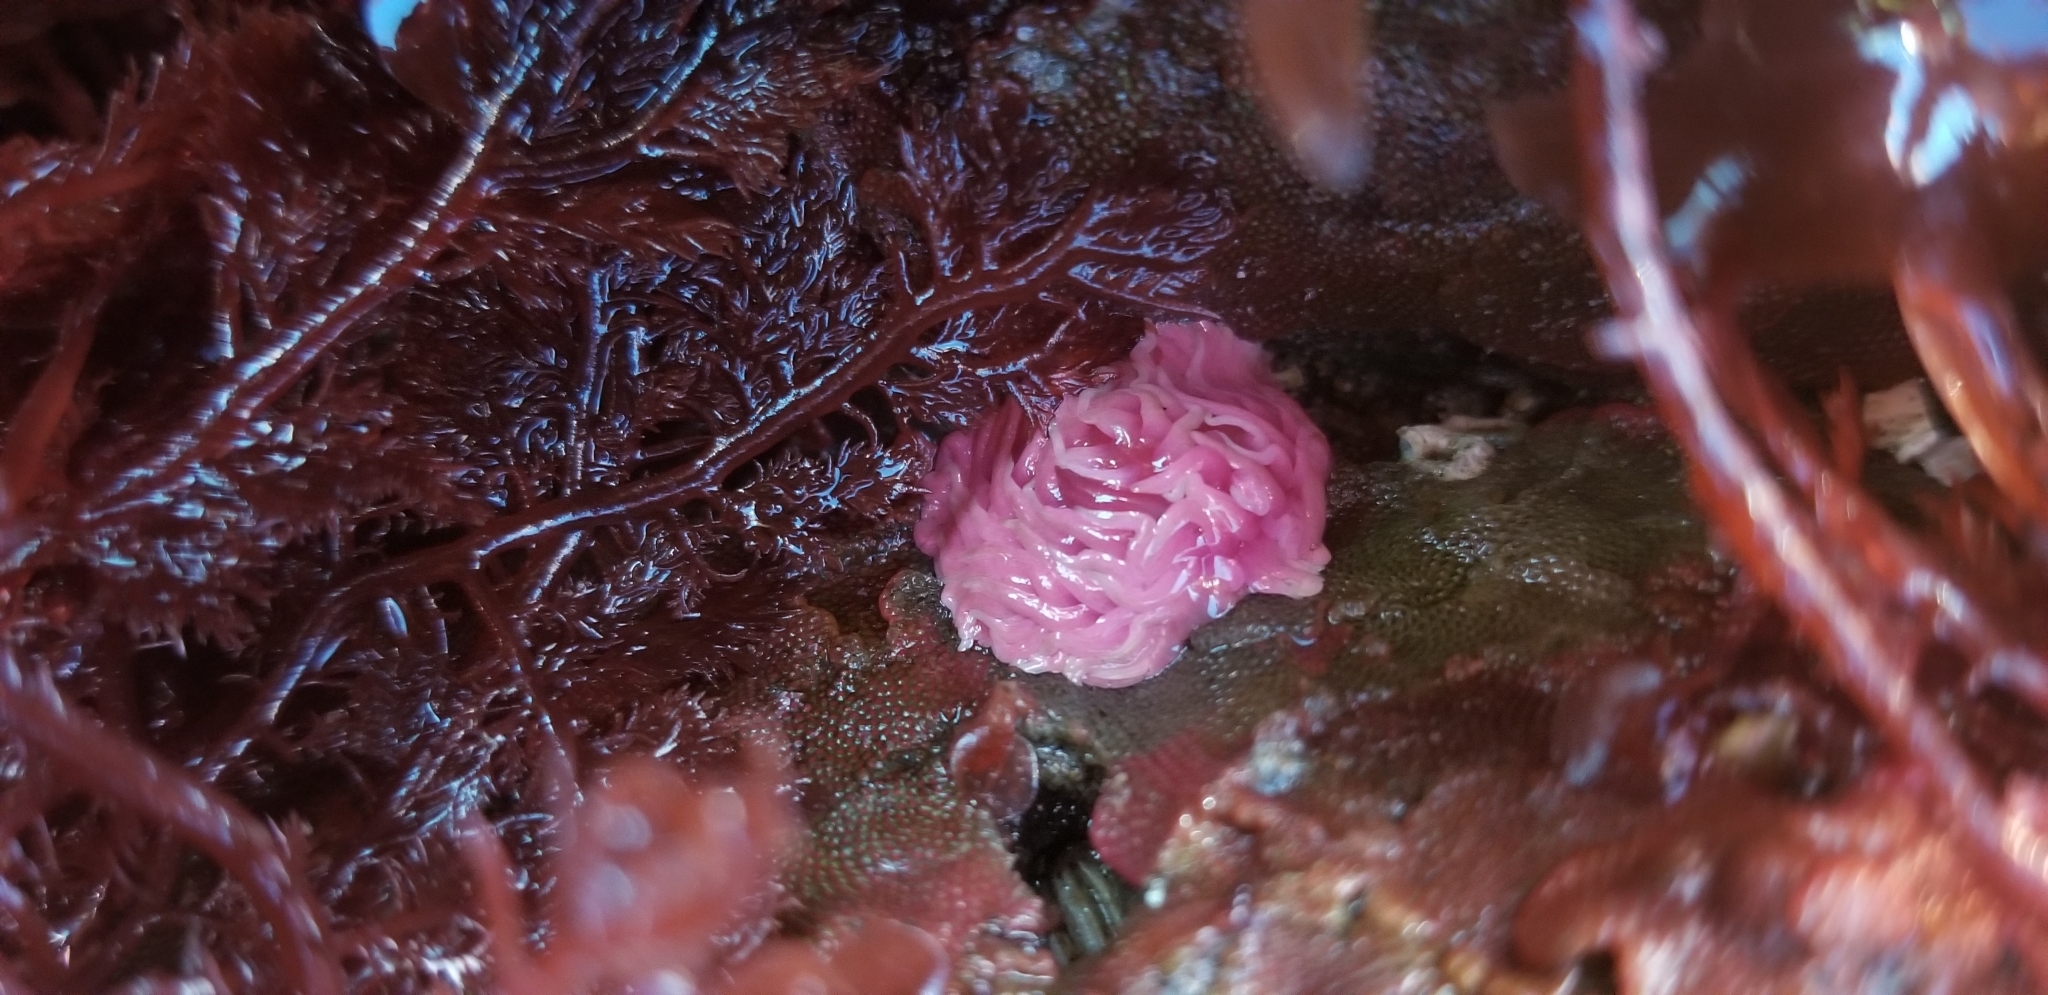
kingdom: Animalia
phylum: Mollusca
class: Gastropoda
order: Nudibranchia
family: Goniodorididae
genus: Okenia
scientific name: Okenia
